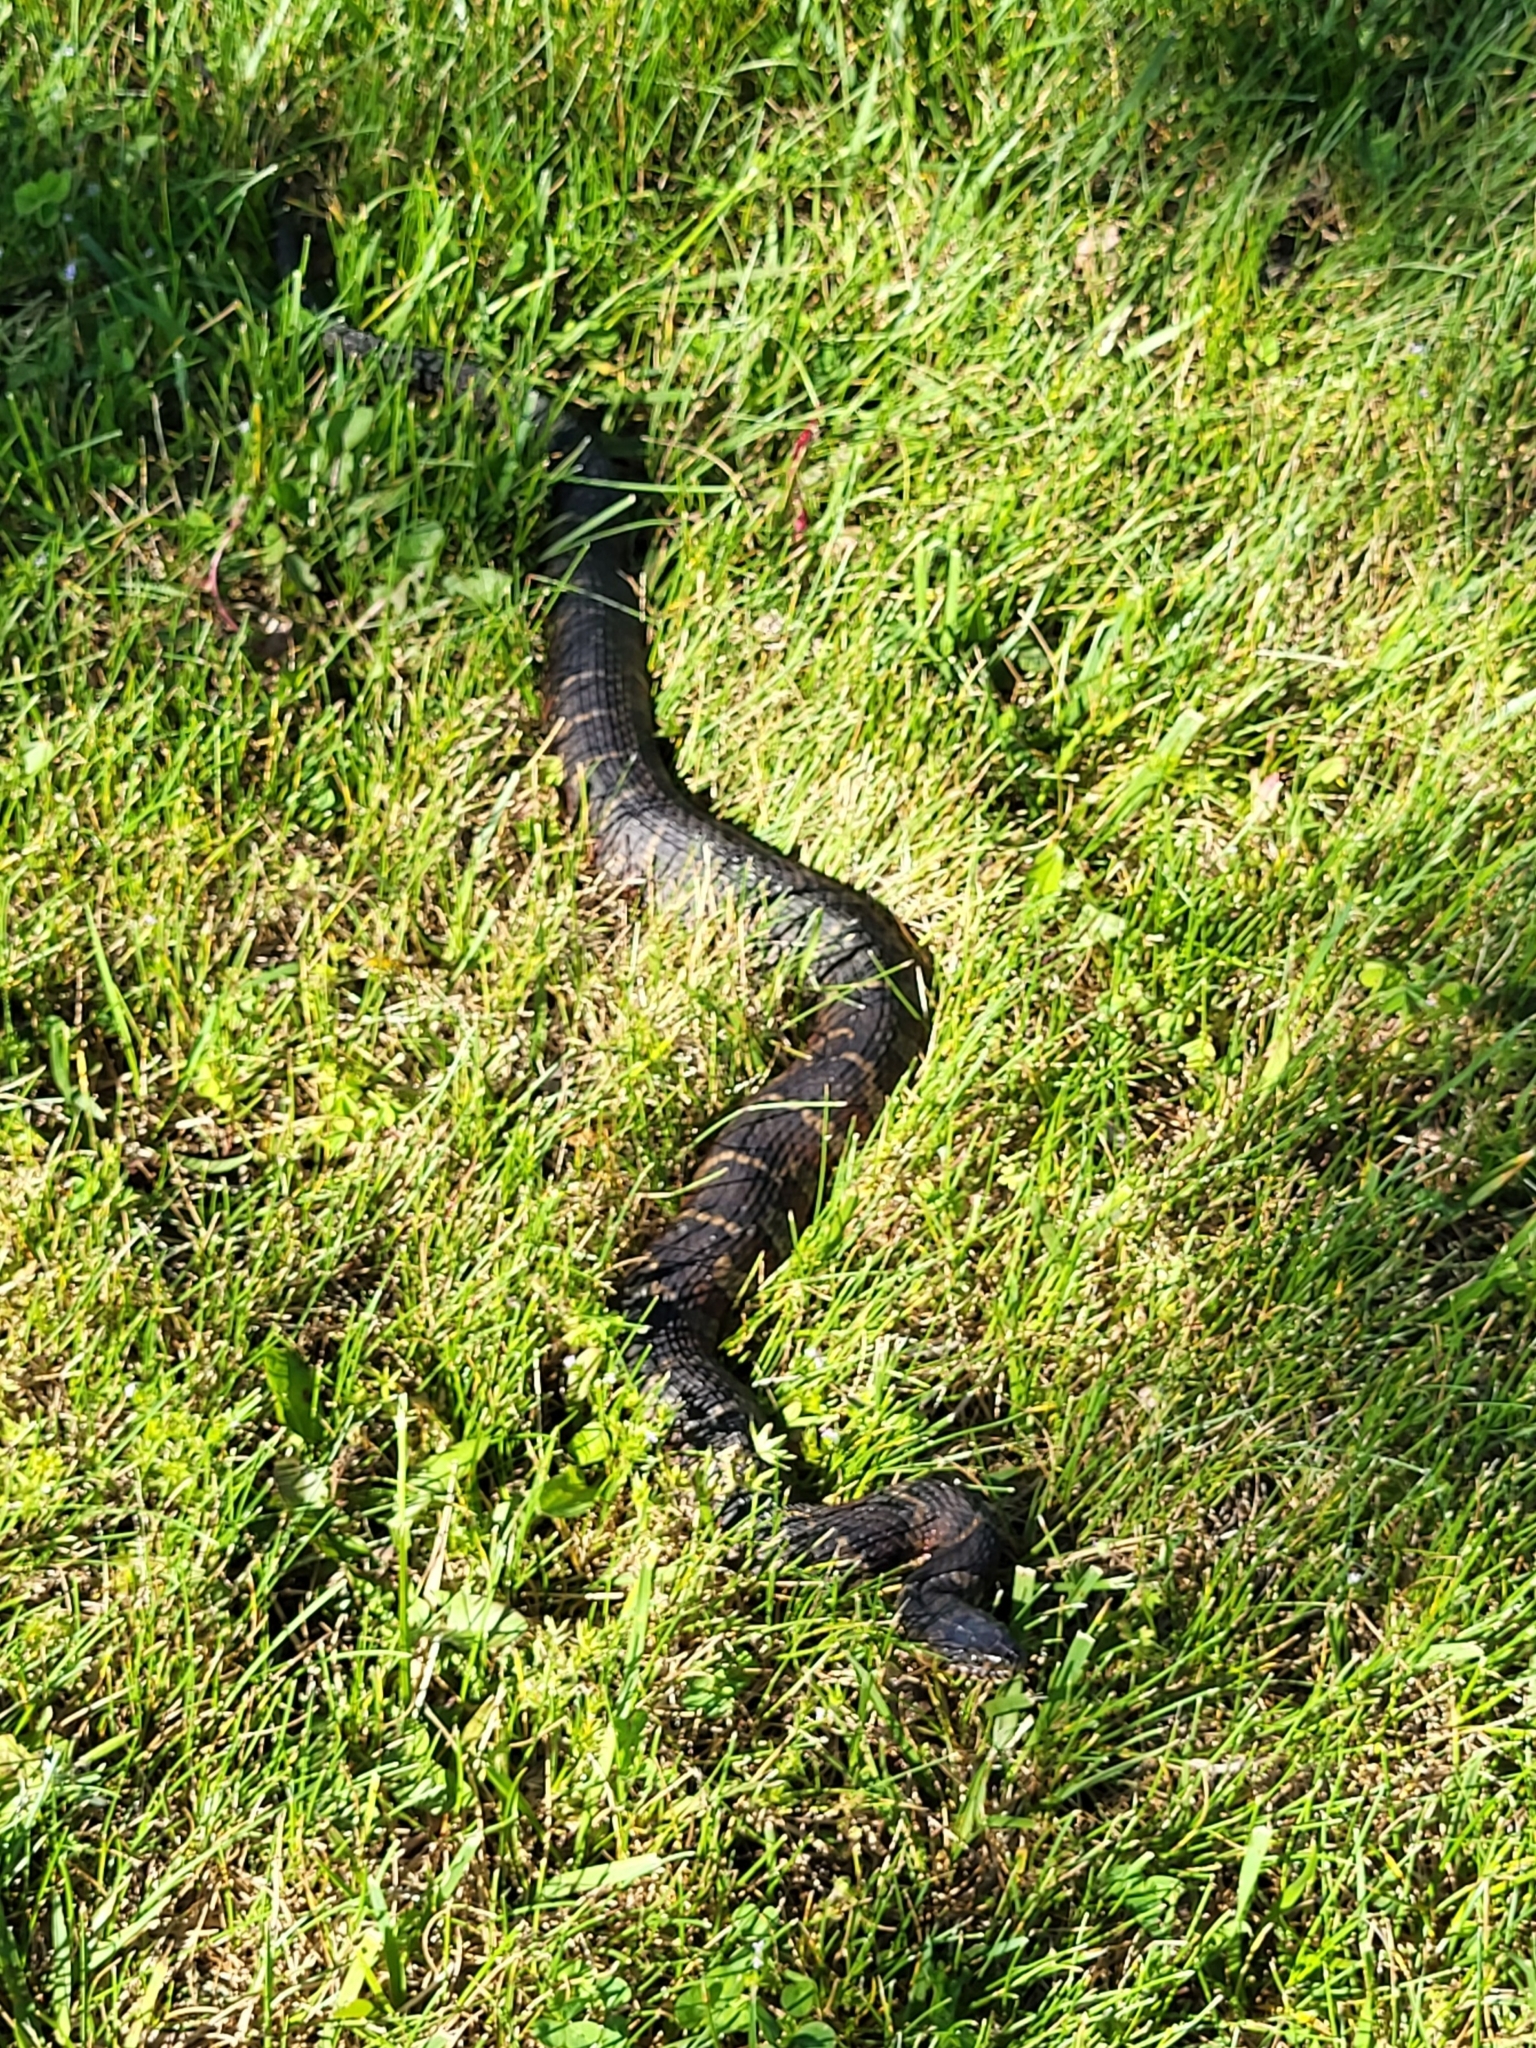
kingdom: Animalia
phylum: Chordata
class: Squamata
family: Colubridae
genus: Nerodia
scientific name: Nerodia sipedon
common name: Northern water snake
